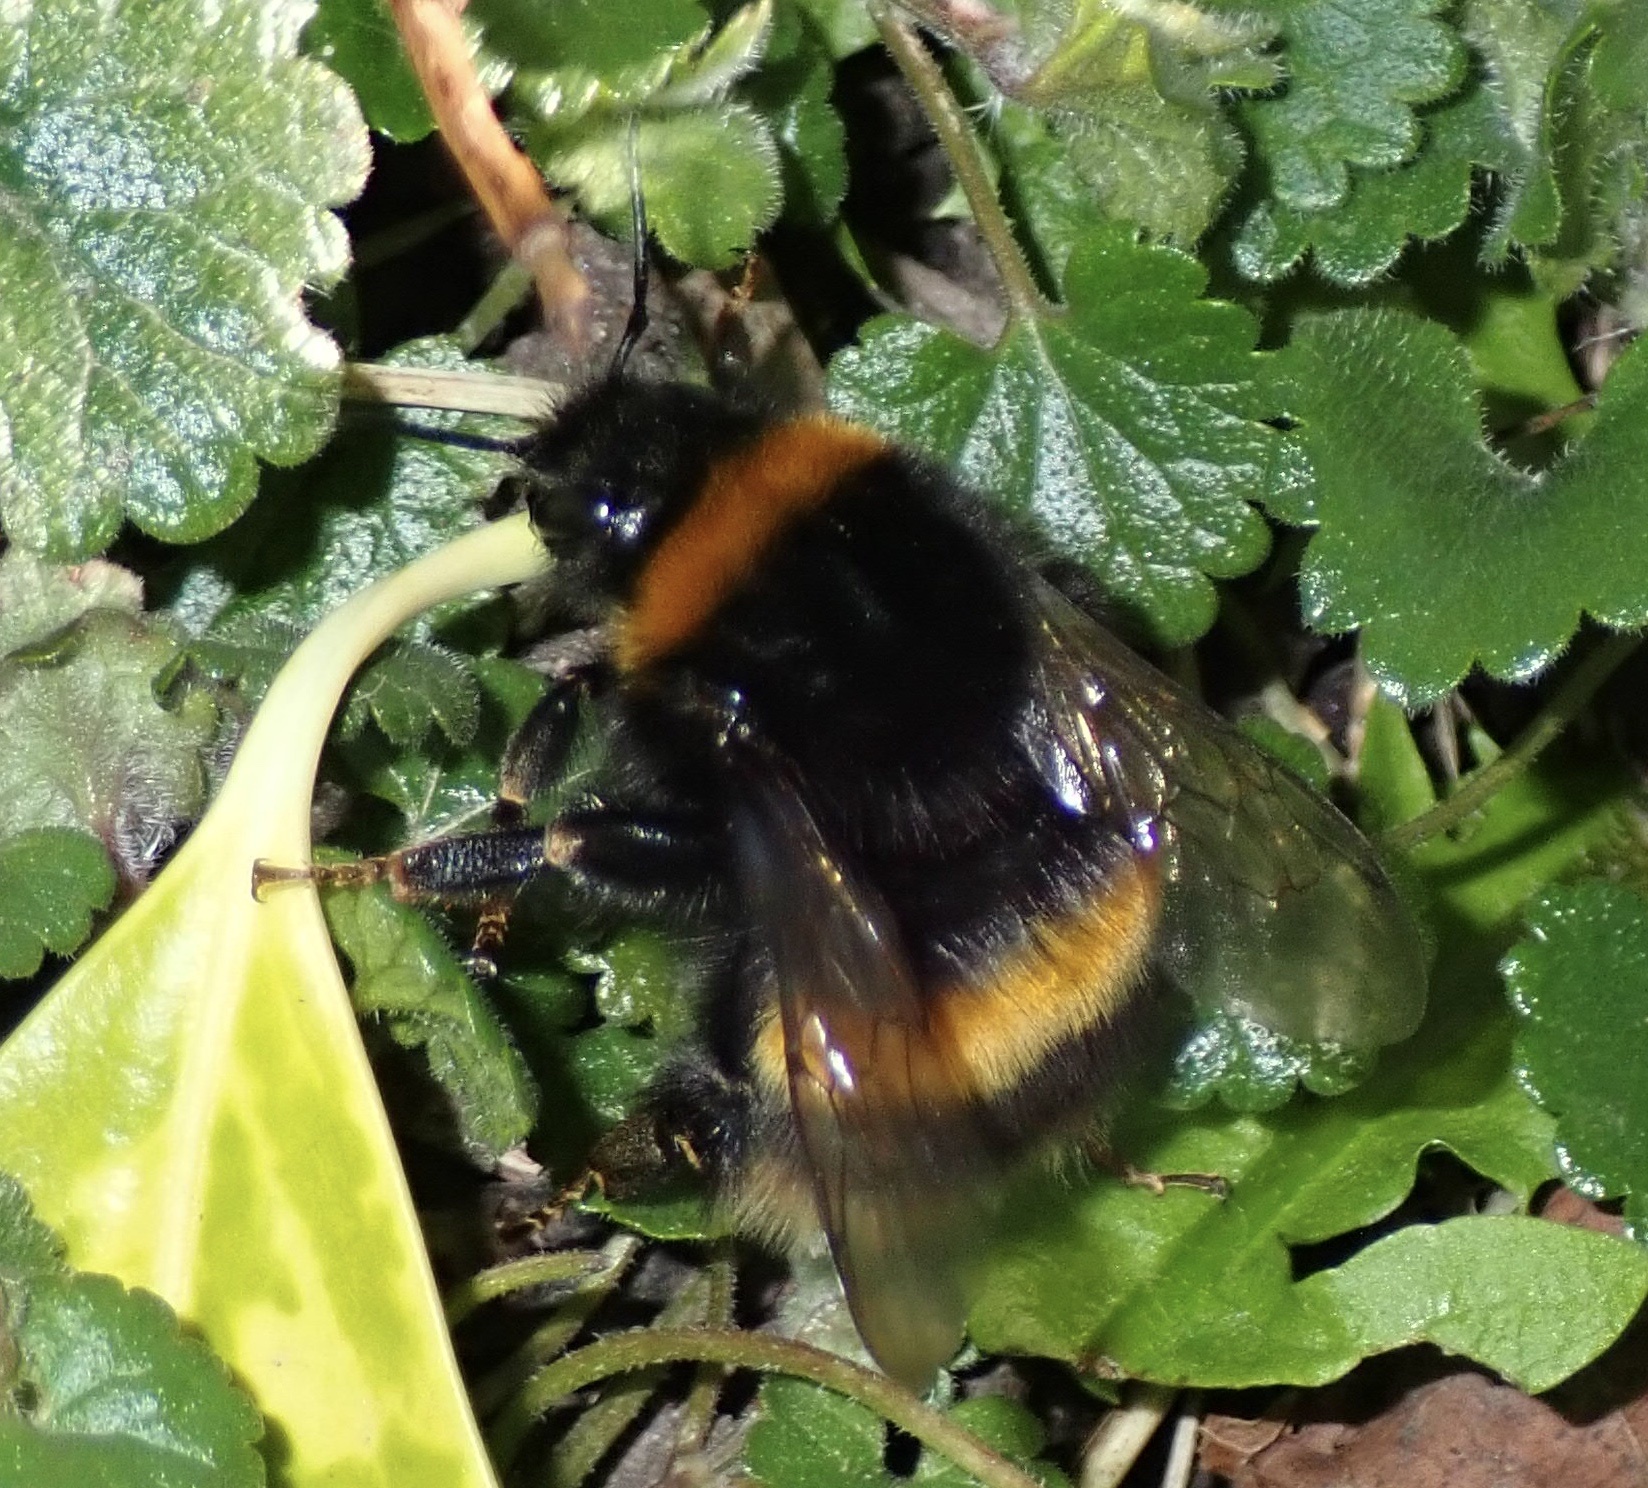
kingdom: Animalia
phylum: Arthropoda
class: Insecta
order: Hymenoptera
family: Apidae
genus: Bombus
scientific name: Bombus terrestris
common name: Buff-tailed bumblebee
